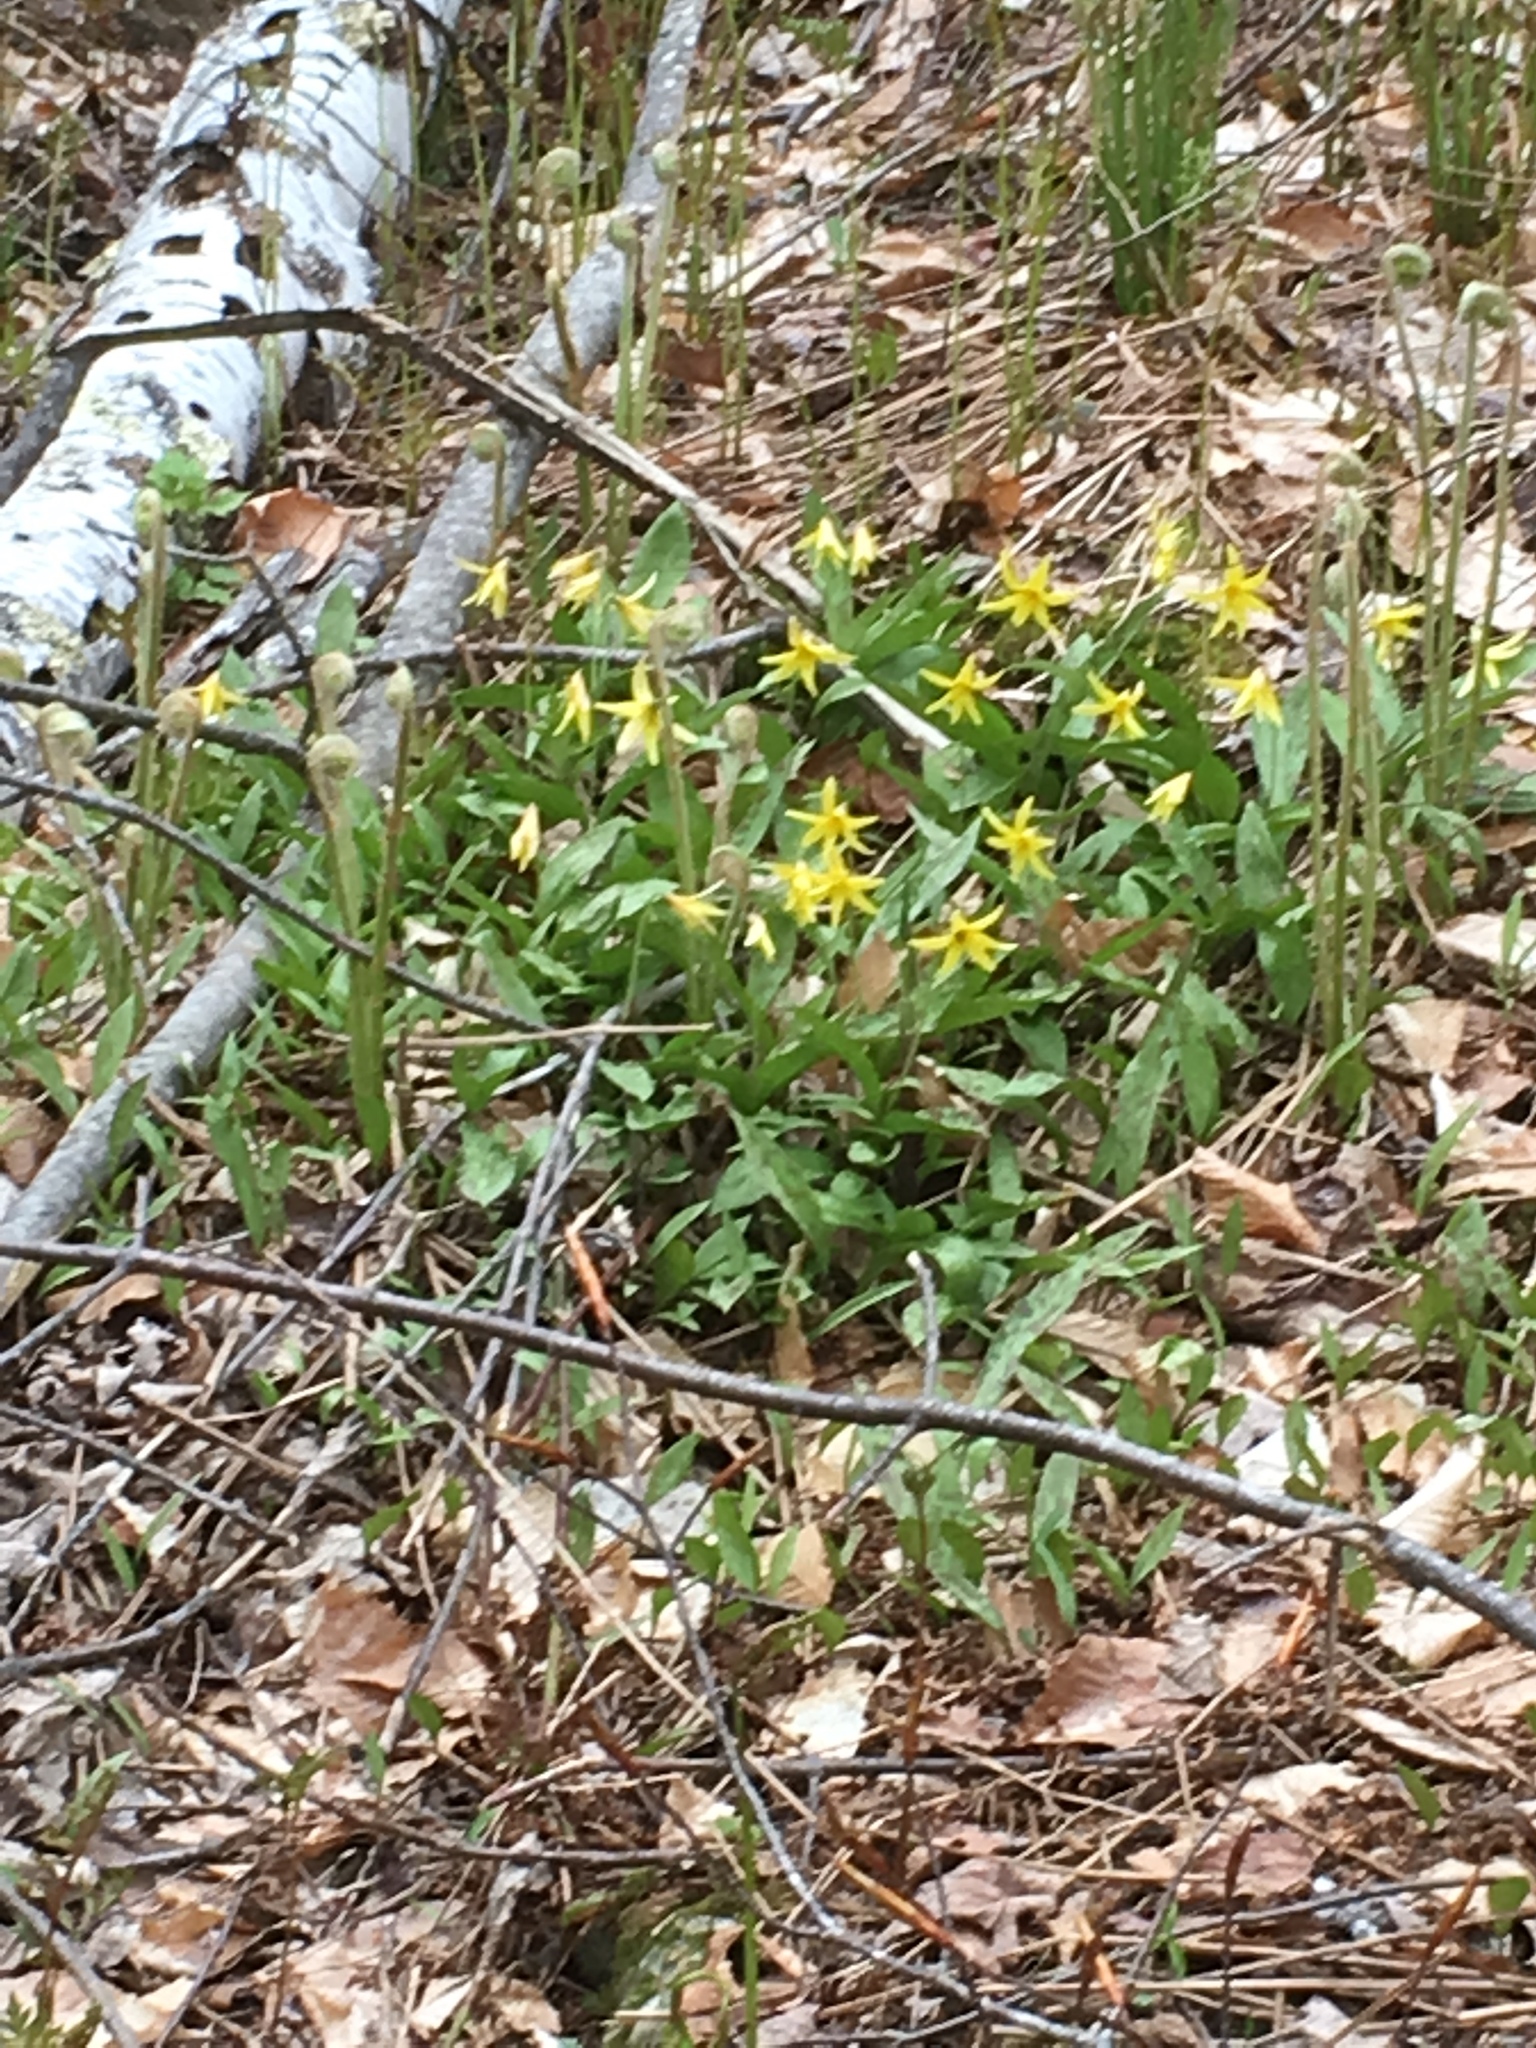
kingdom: Plantae
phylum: Tracheophyta
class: Liliopsida
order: Liliales
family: Liliaceae
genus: Erythronium
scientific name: Erythronium americanum
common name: Yellow adder's-tongue
